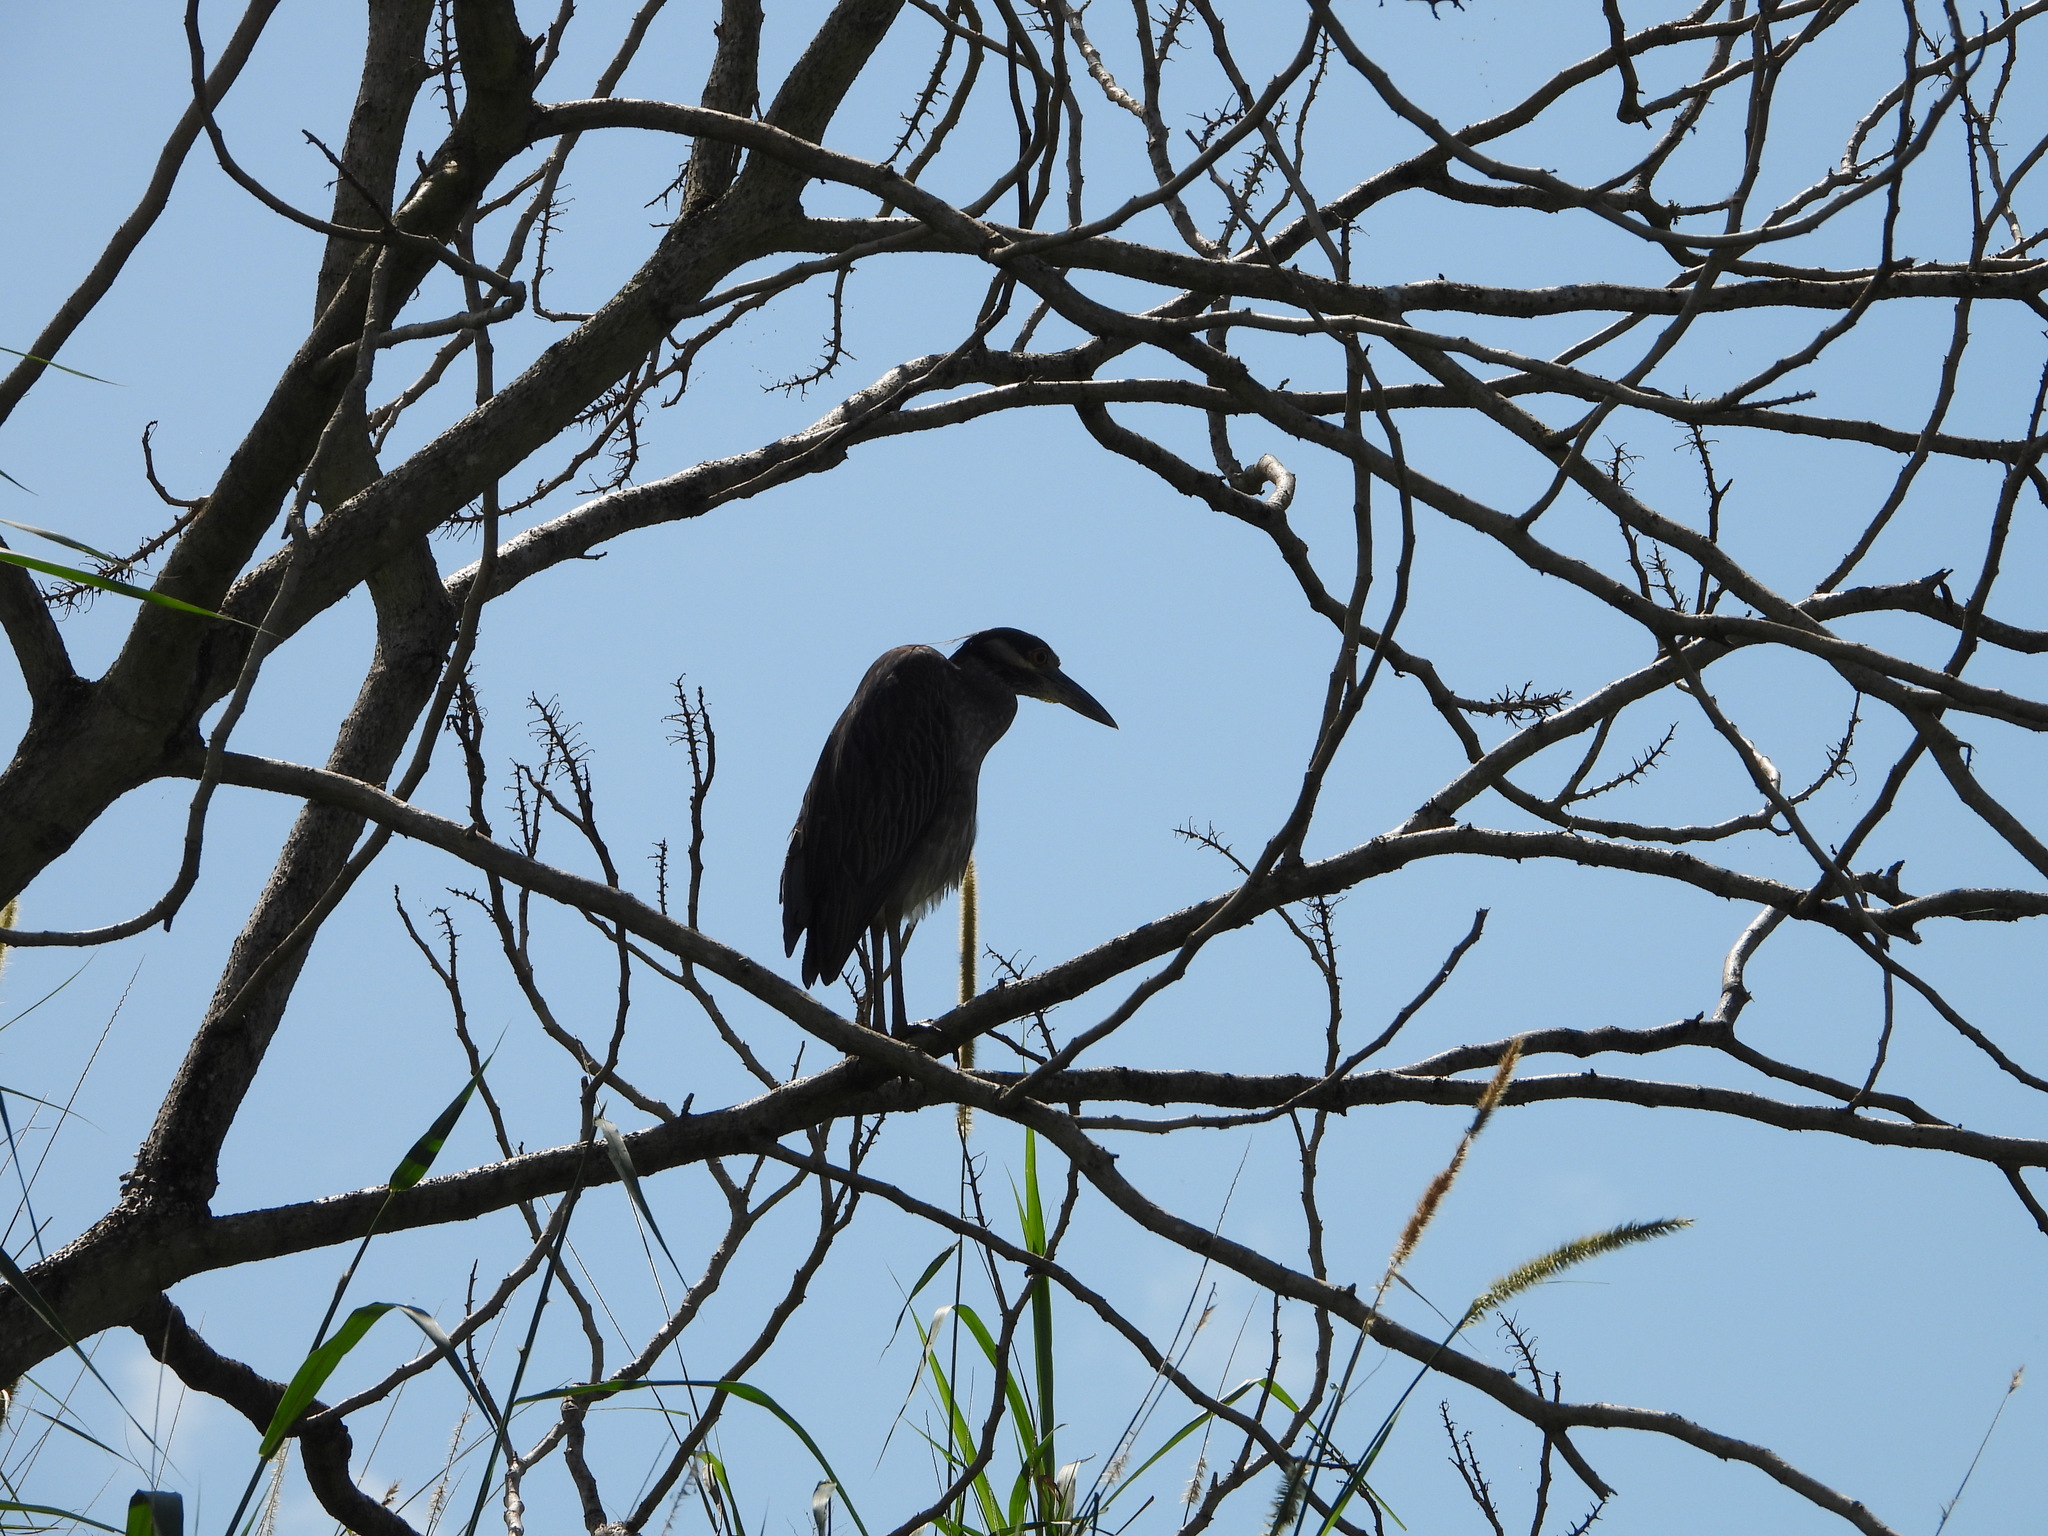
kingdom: Animalia
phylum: Chordata
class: Aves
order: Pelecaniformes
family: Ardeidae
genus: Nyctanassa
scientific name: Nyctanassa violacea
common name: Yellow-crowned night heron
